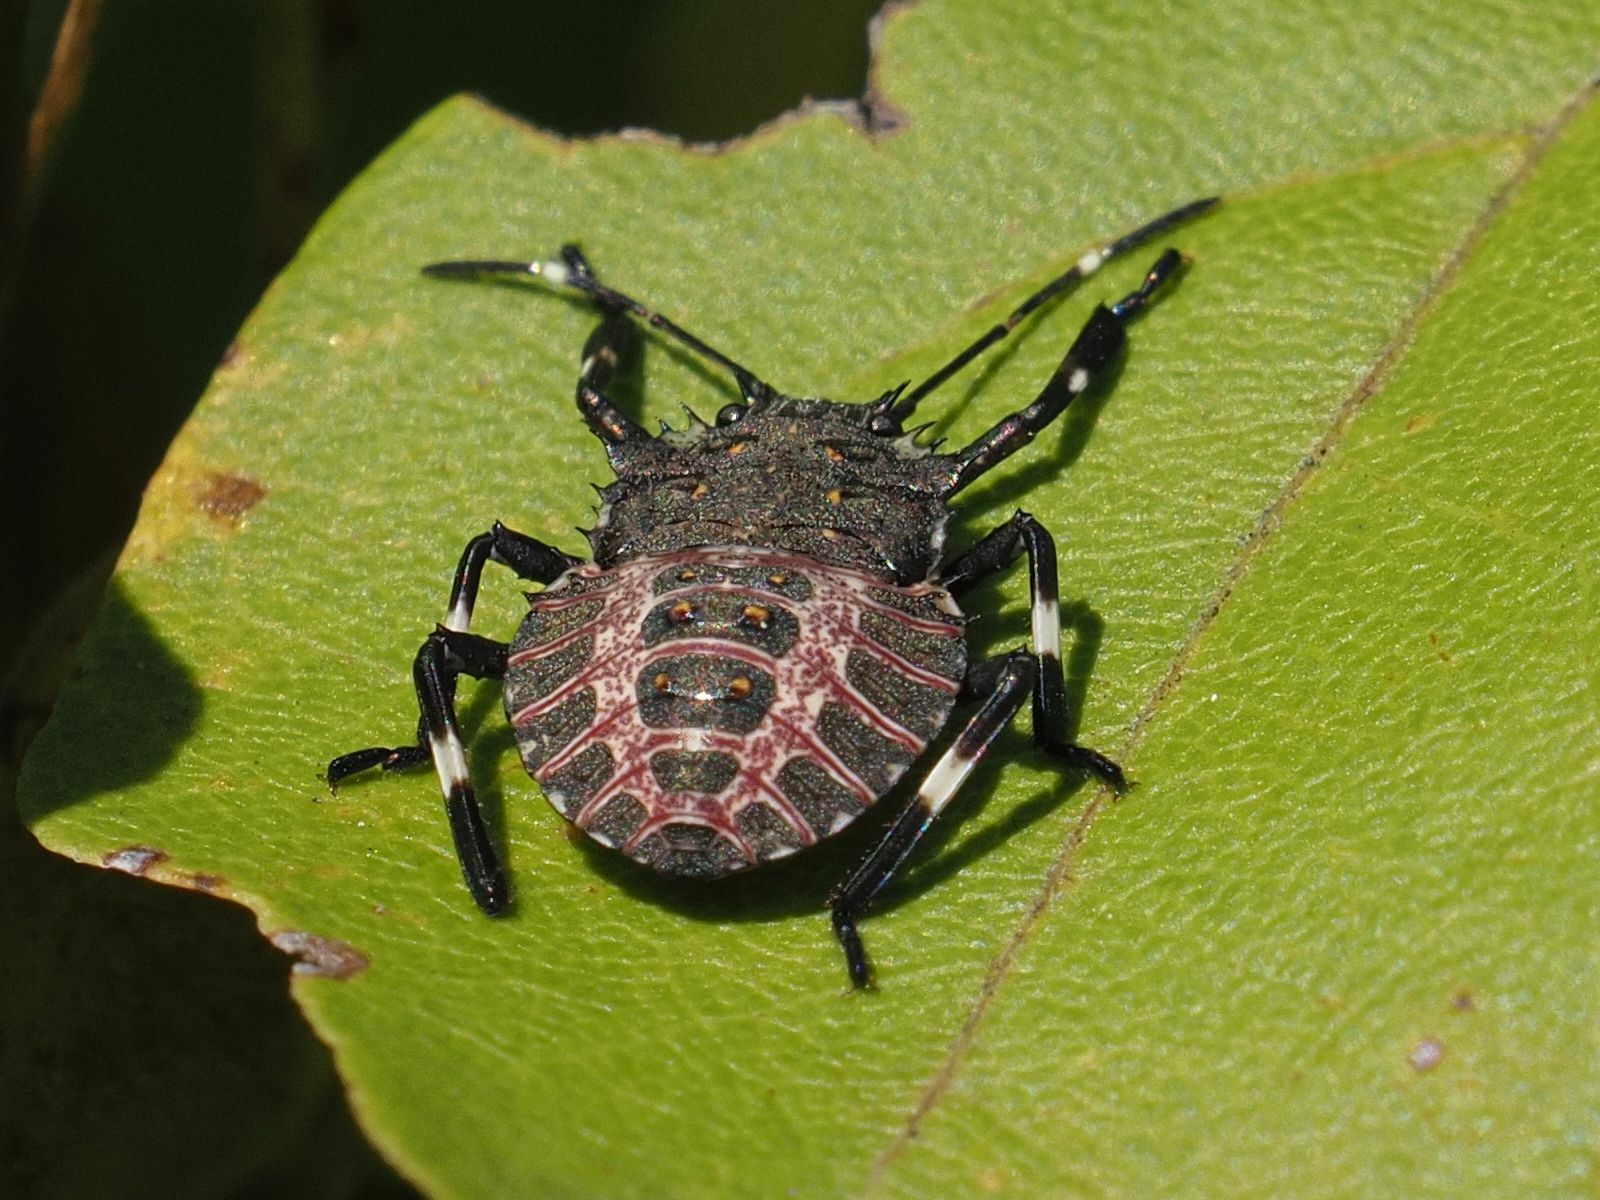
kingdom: Animalia
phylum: Arthropoda
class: Insecta
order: Hemiptera
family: Pentatomidae
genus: Halyomorpha
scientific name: Halyomorpha halys
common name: Brown marmorated stink bug
